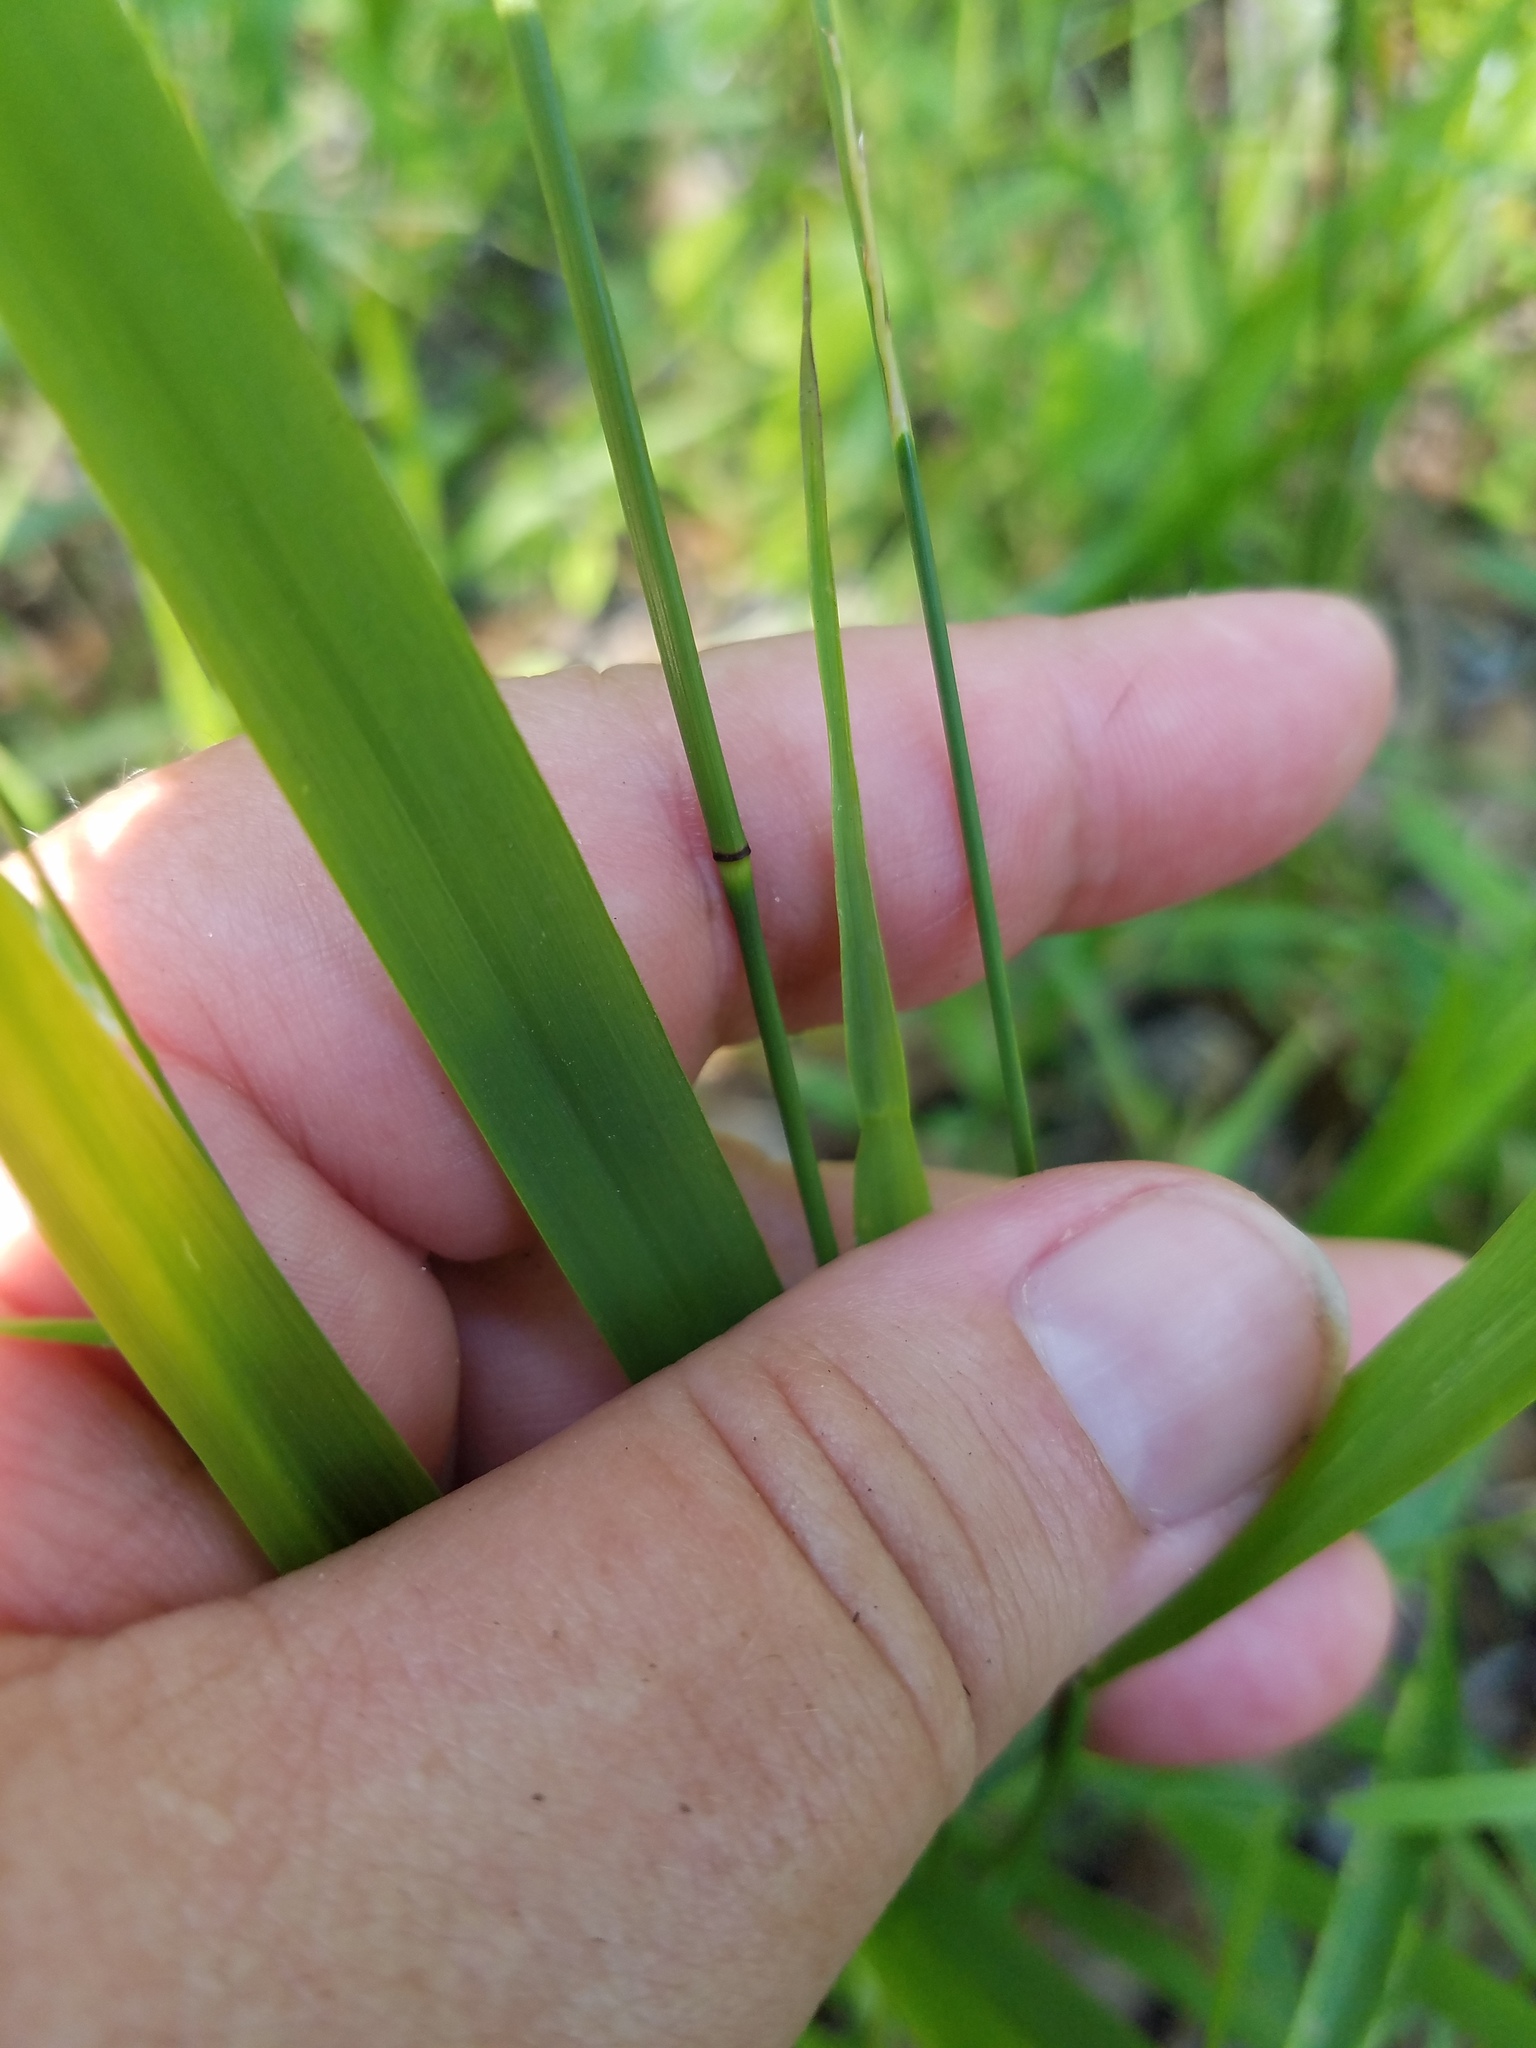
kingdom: Plantae
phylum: Tracheophyta
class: Liliopsida
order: Poales
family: Poaceae
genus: Chasmanthium
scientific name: Chasmanthium nitidum
